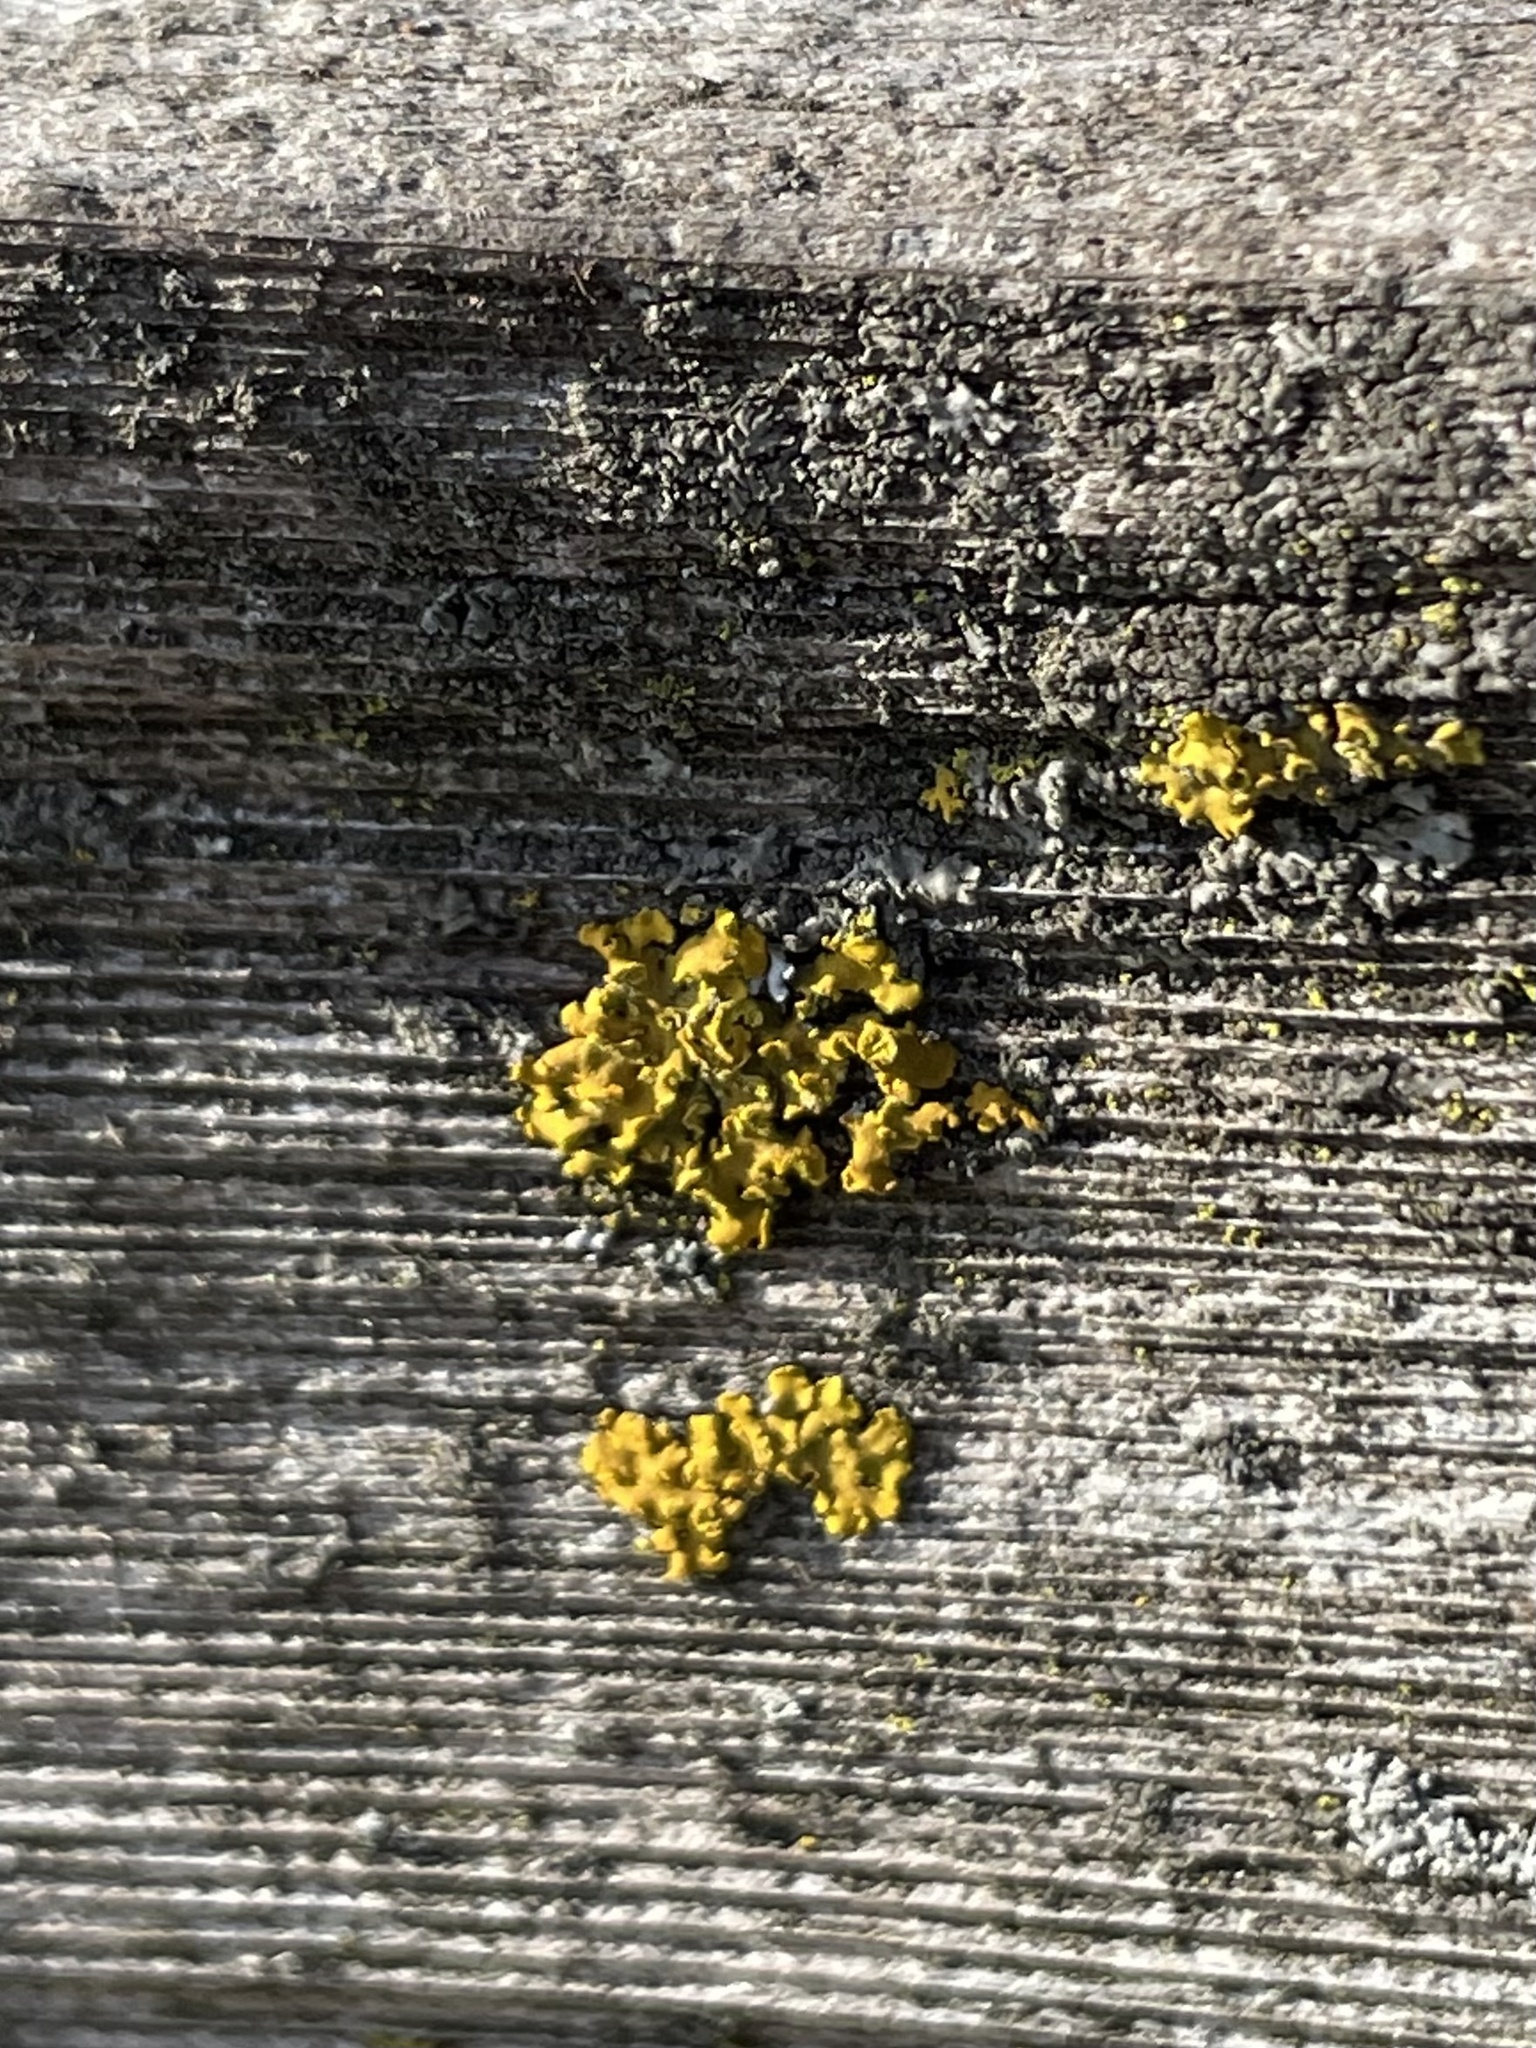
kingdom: Fungi
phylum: Ascomycota
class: Lecanoromycetes
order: Teloschistales
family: Teloschistaceae
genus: Oxneria
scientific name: Oxneria fallax
